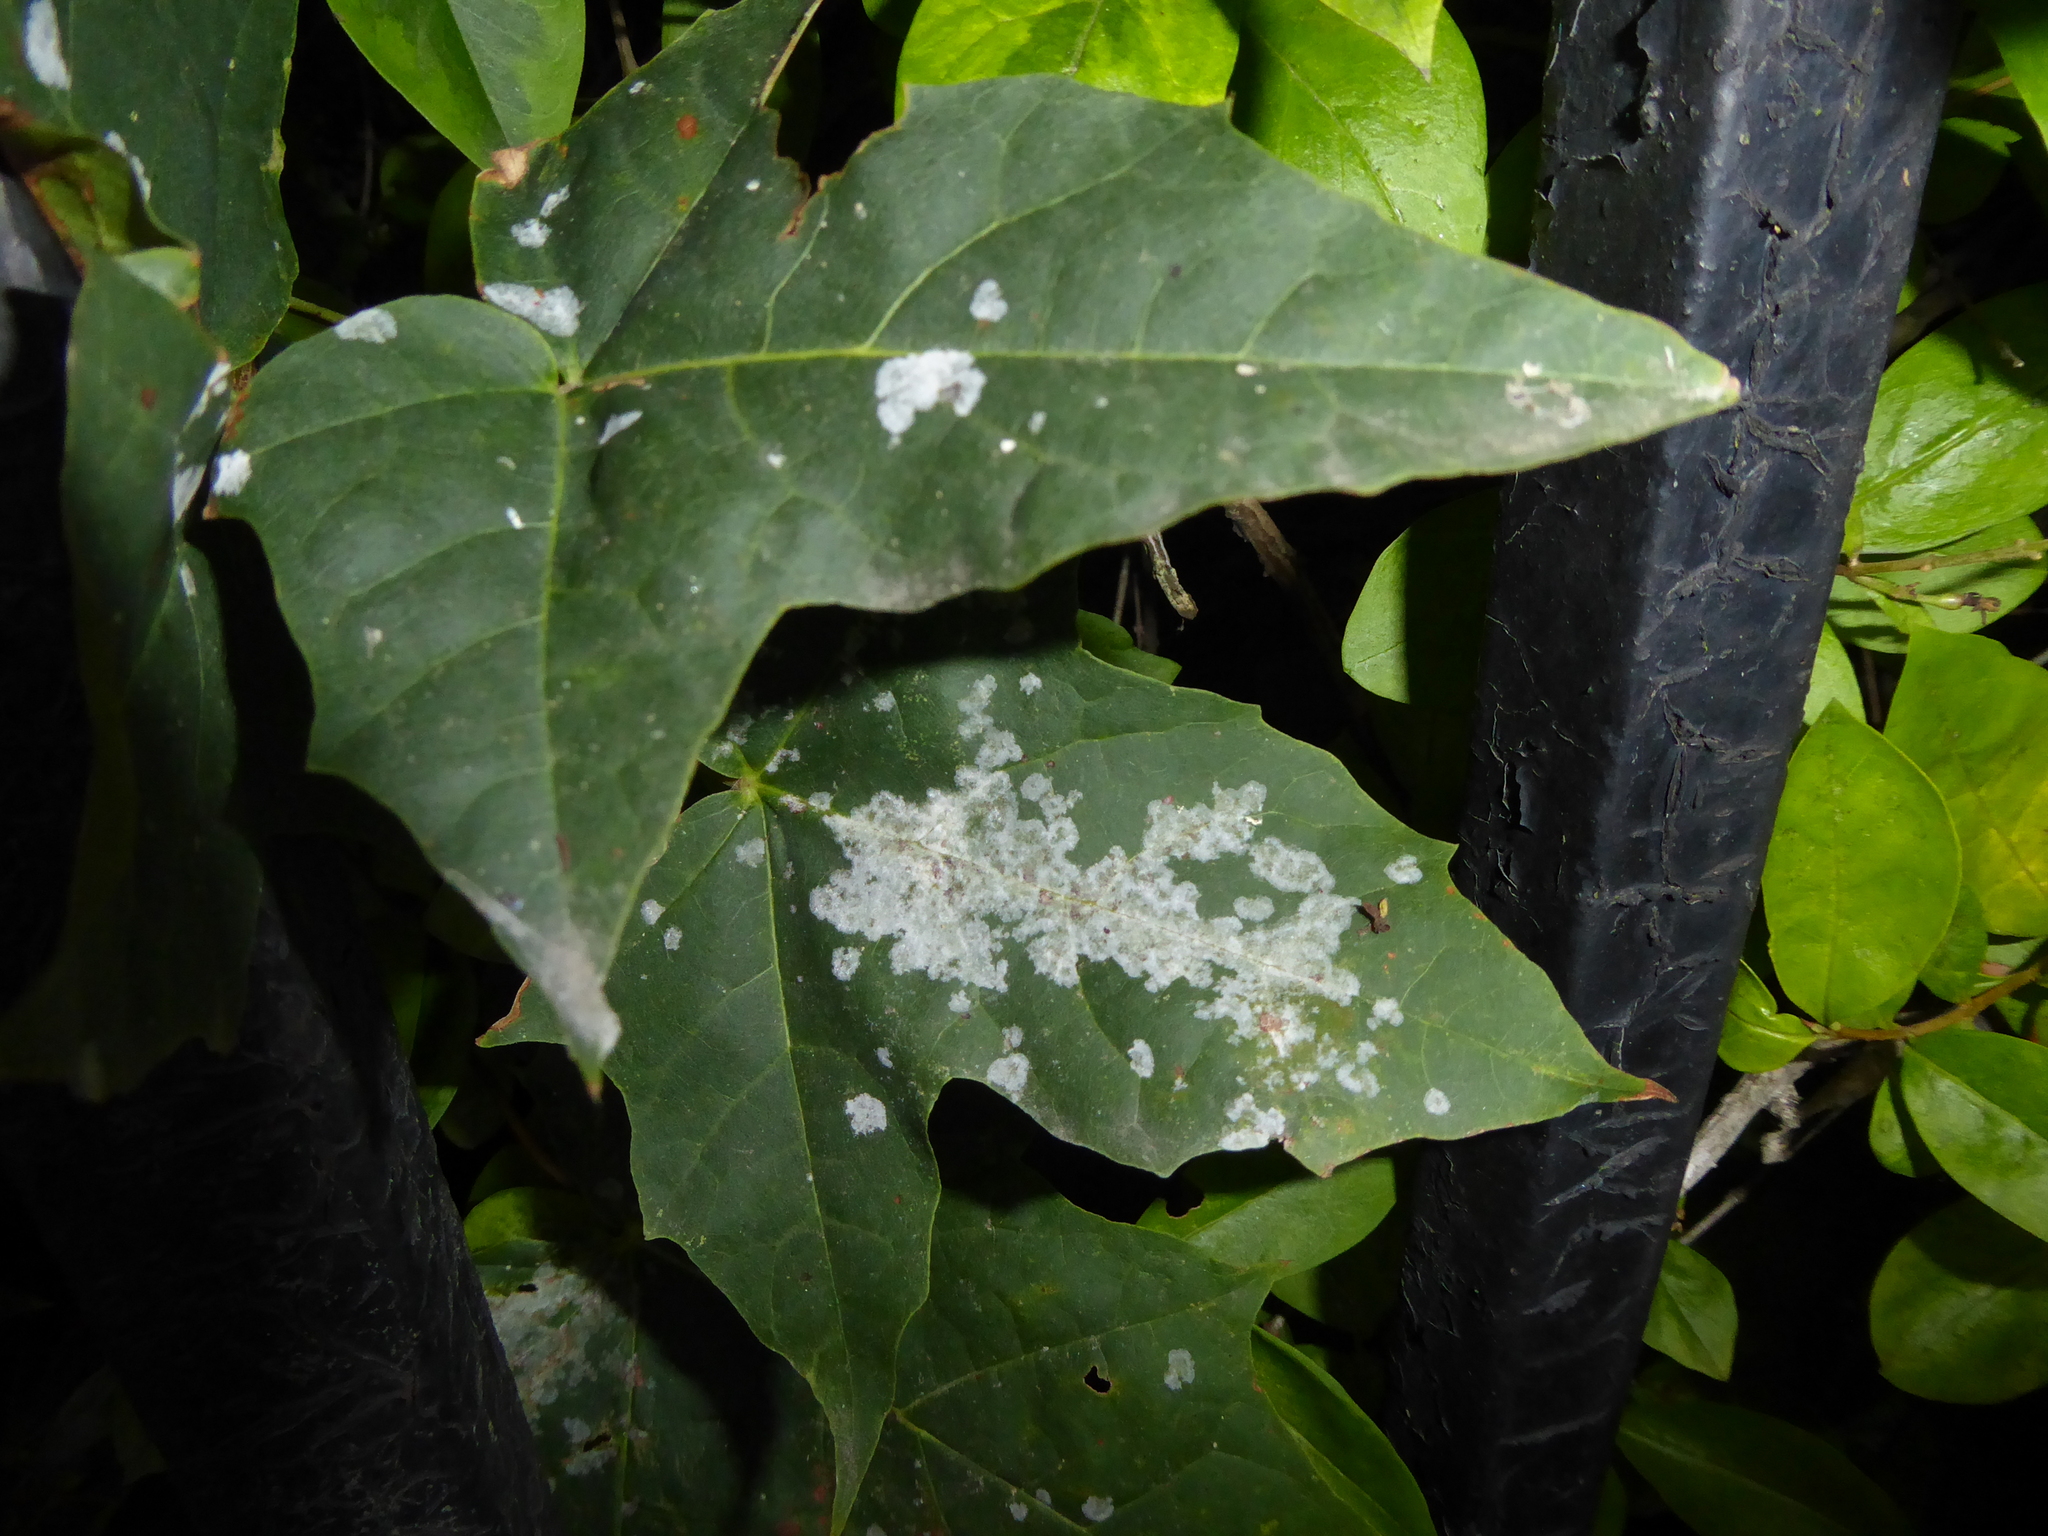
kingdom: Fungi
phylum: Ascomycota
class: Leotiomycetes
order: Helotiales
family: Erysiphaceae
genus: Sawadaea
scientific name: Sawadaea tulasnei
